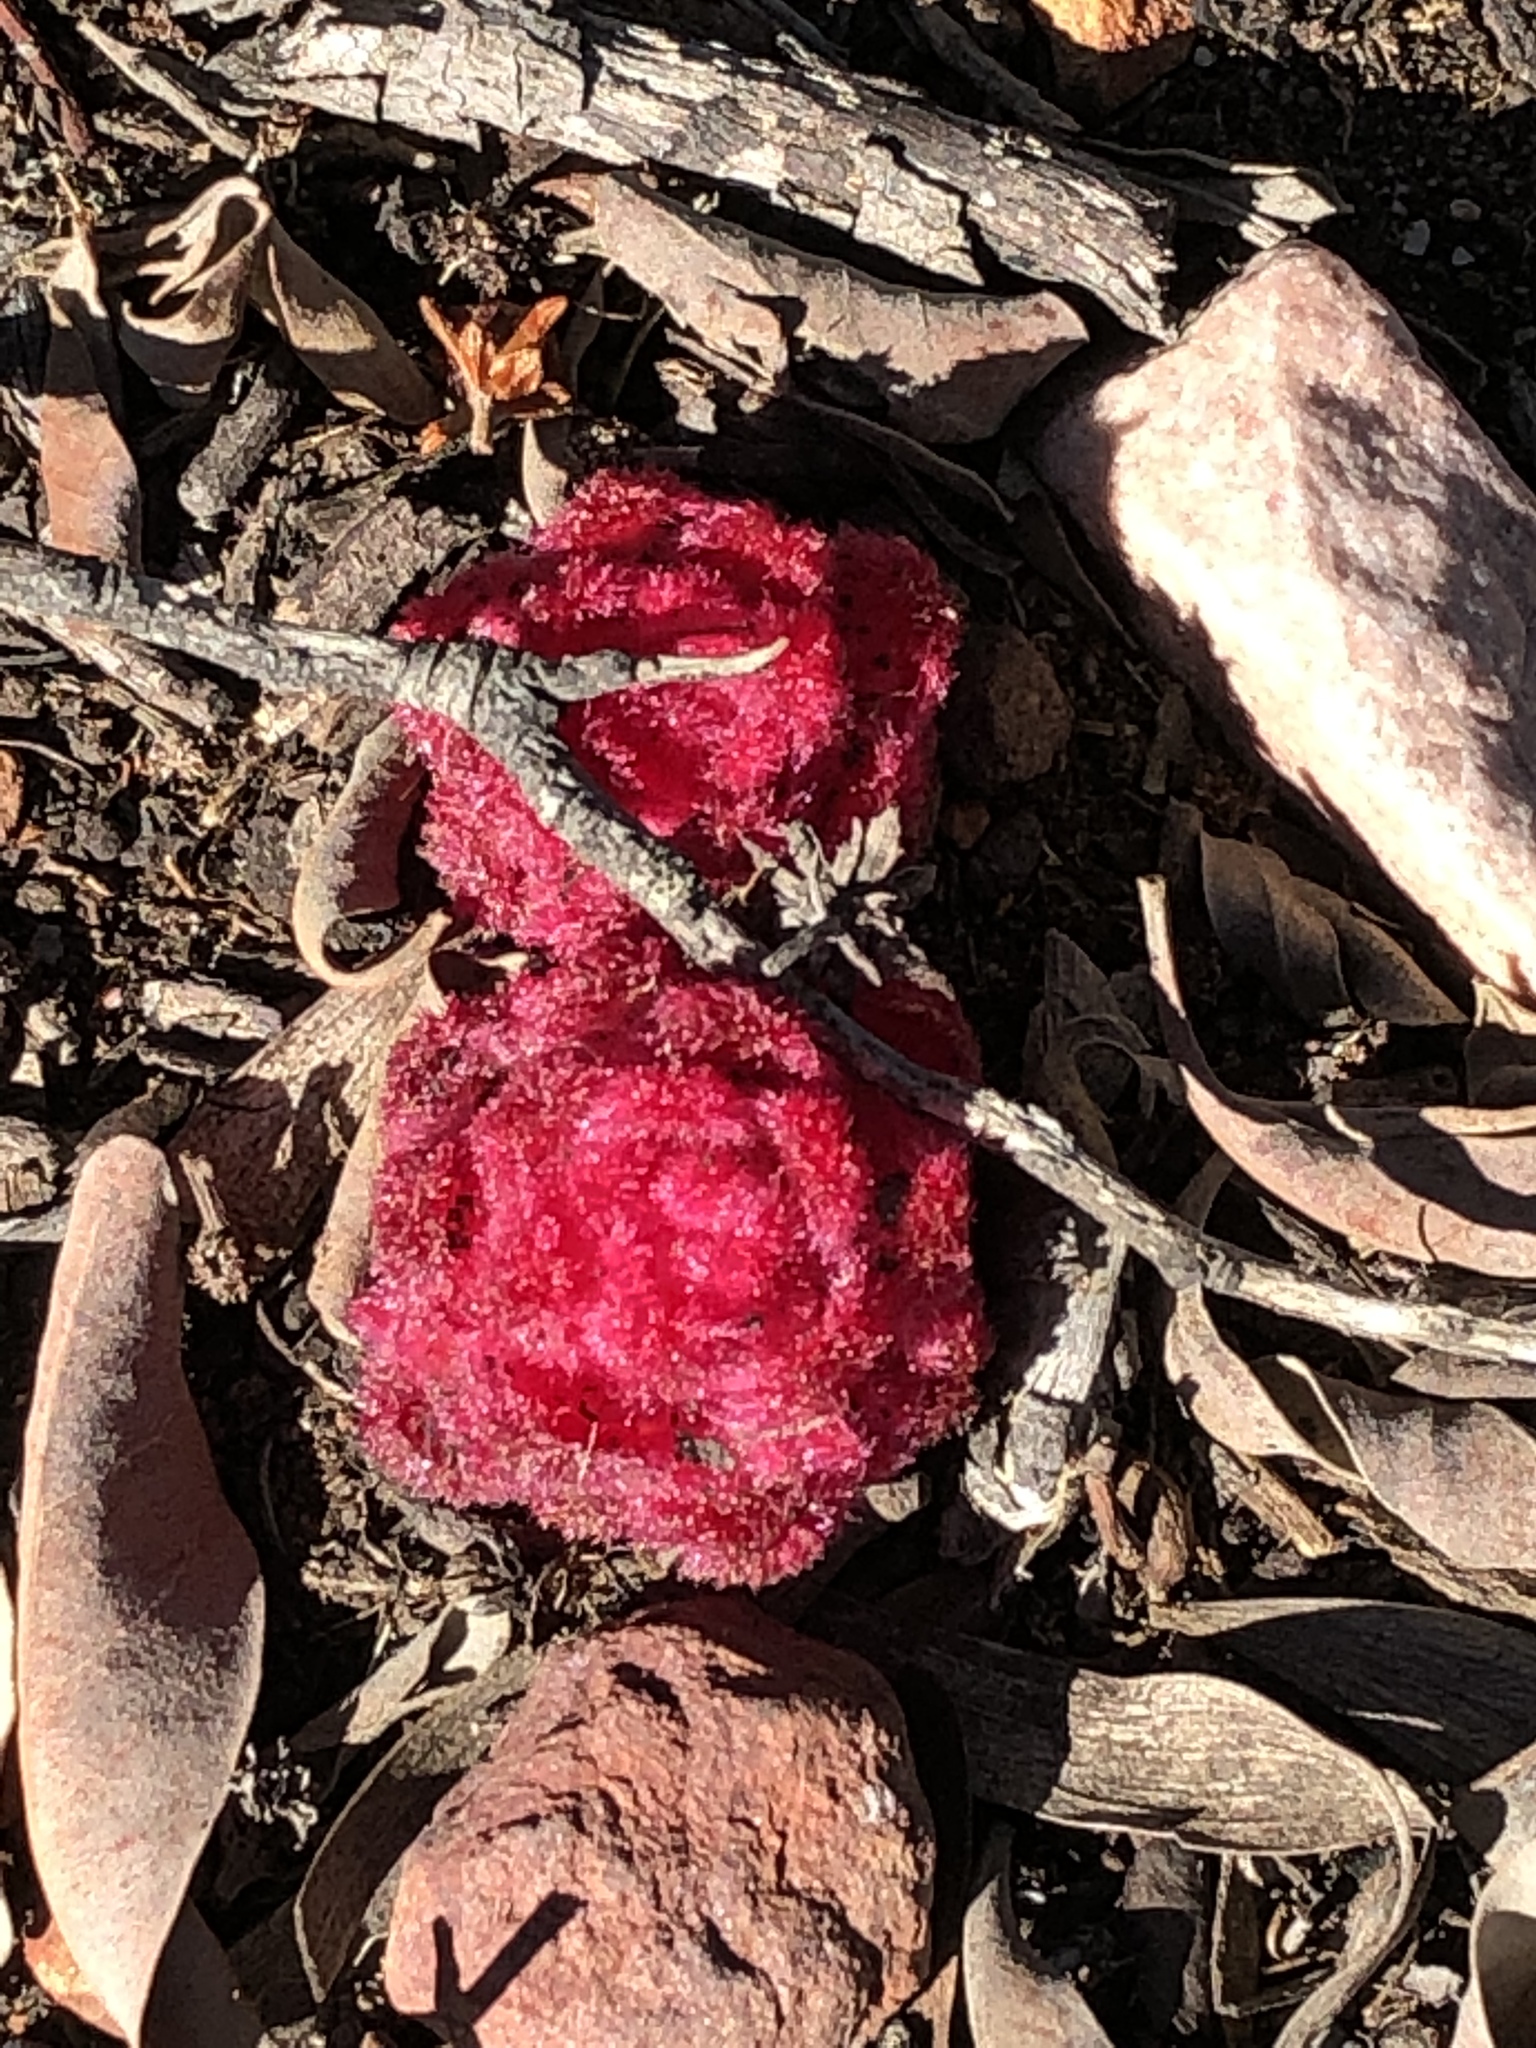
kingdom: Plantae
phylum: Tracheophyta
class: Magnoliopsida
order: Lamiales
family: Orobanchaceae
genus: Hyobanche
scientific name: Hyobanche sanguinea
